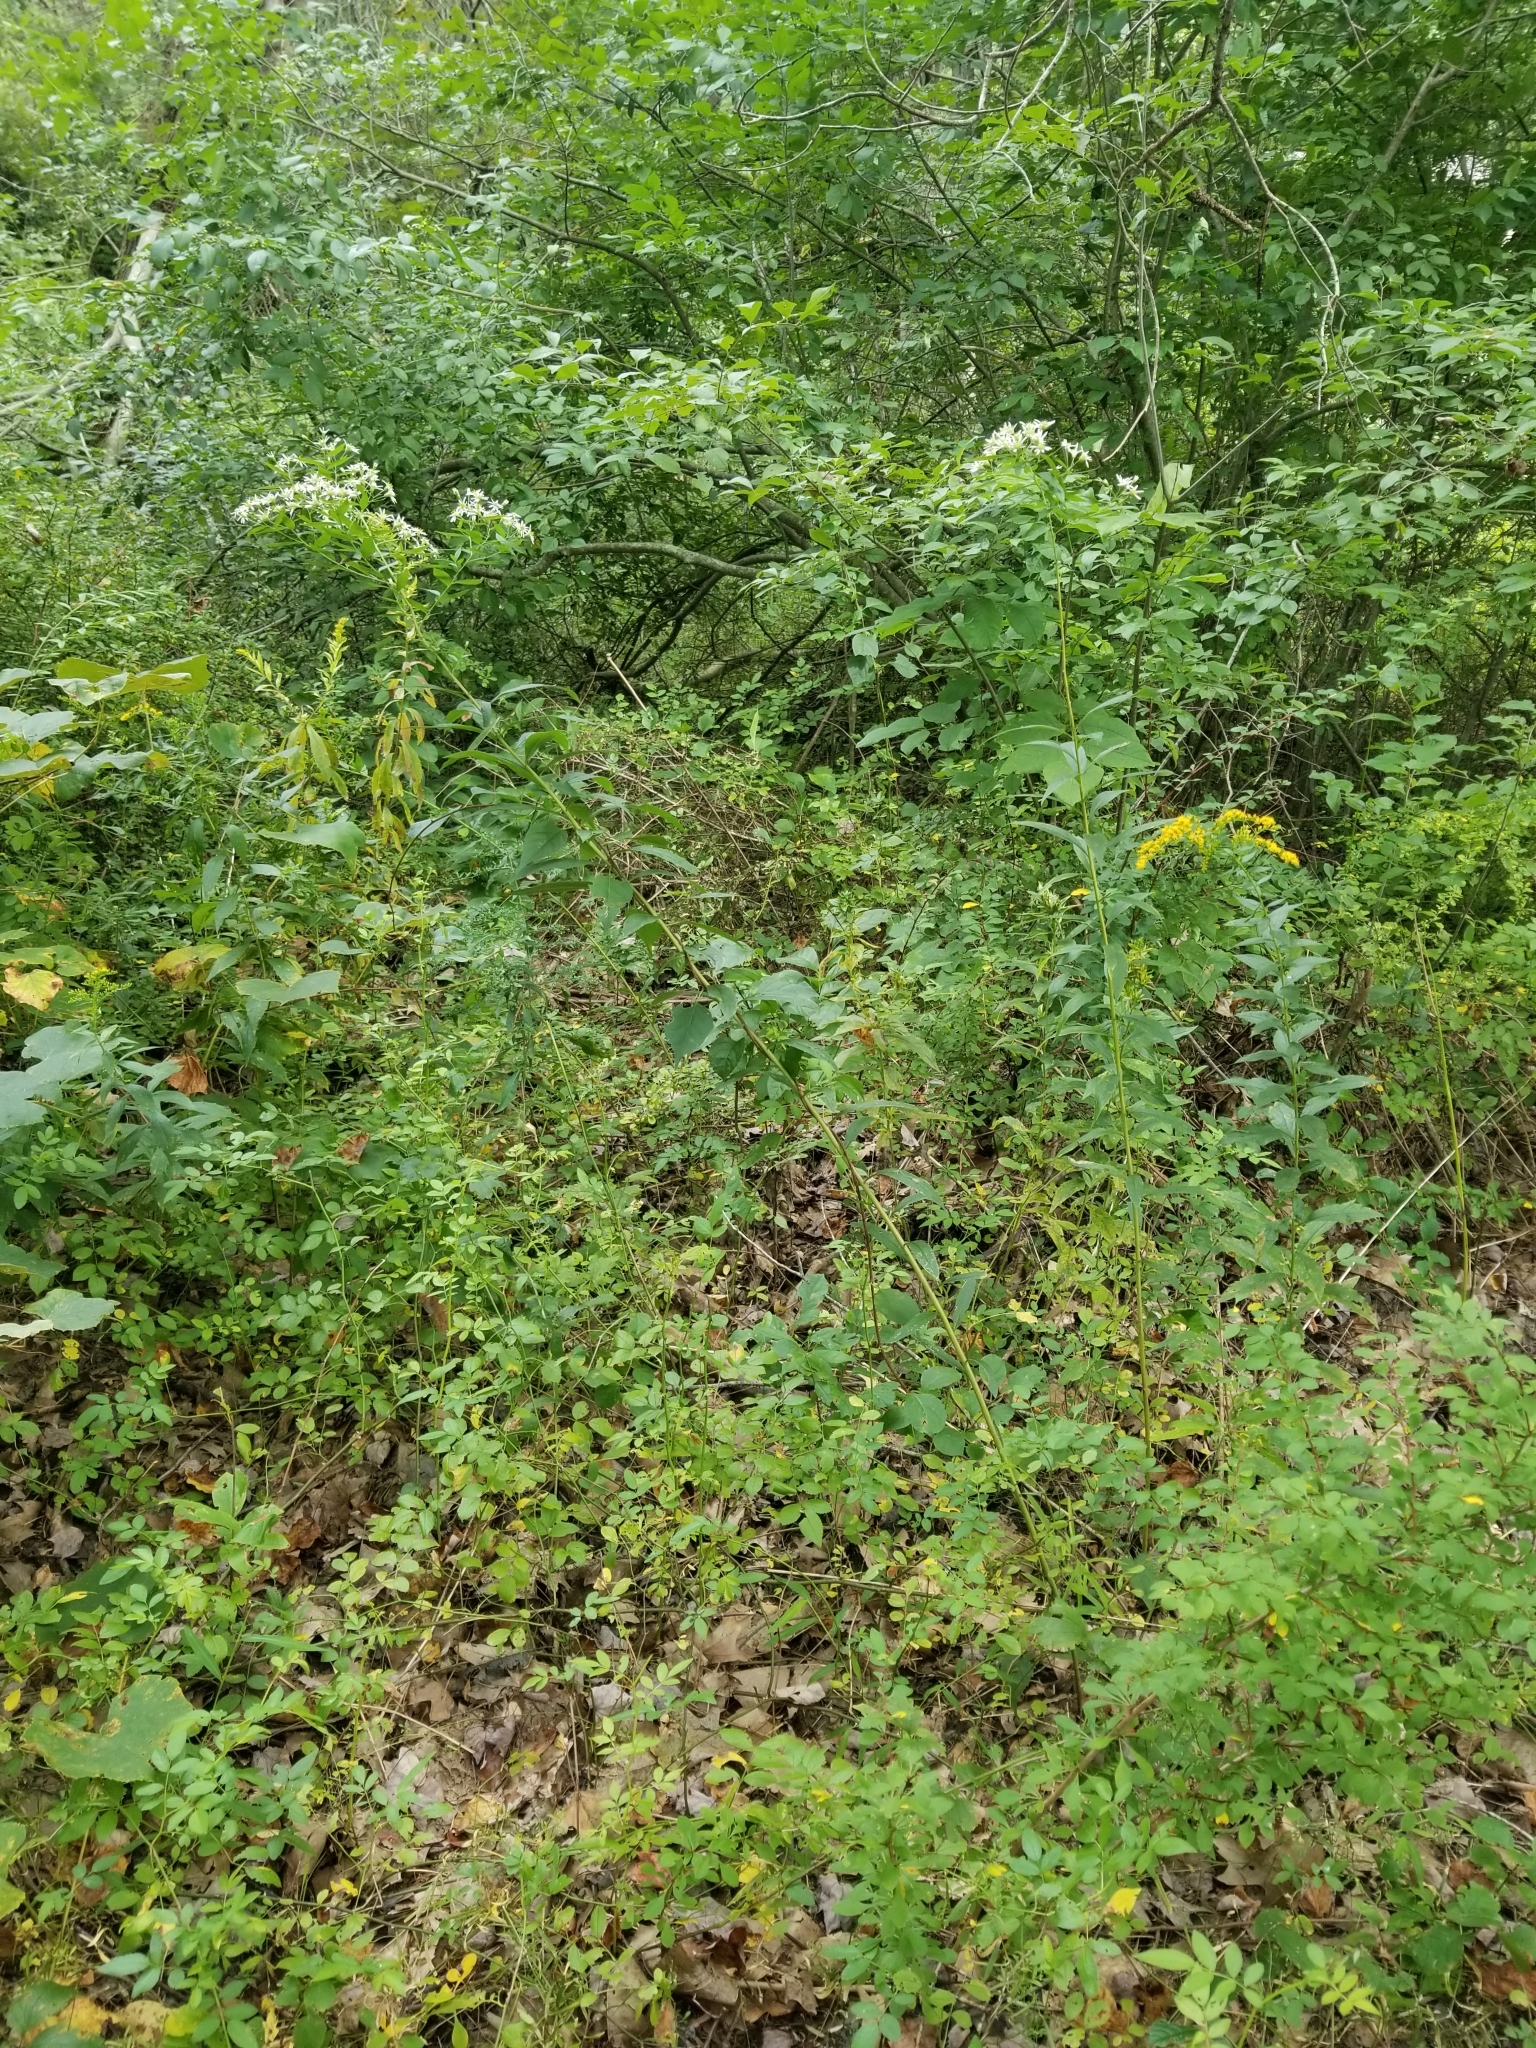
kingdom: Plantae
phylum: Tracheophyta
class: Magnoliopsida
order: Asterales
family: Asteraceae
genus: Doellingeria
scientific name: Doellingeria umbellata
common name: Flat-top white aster
